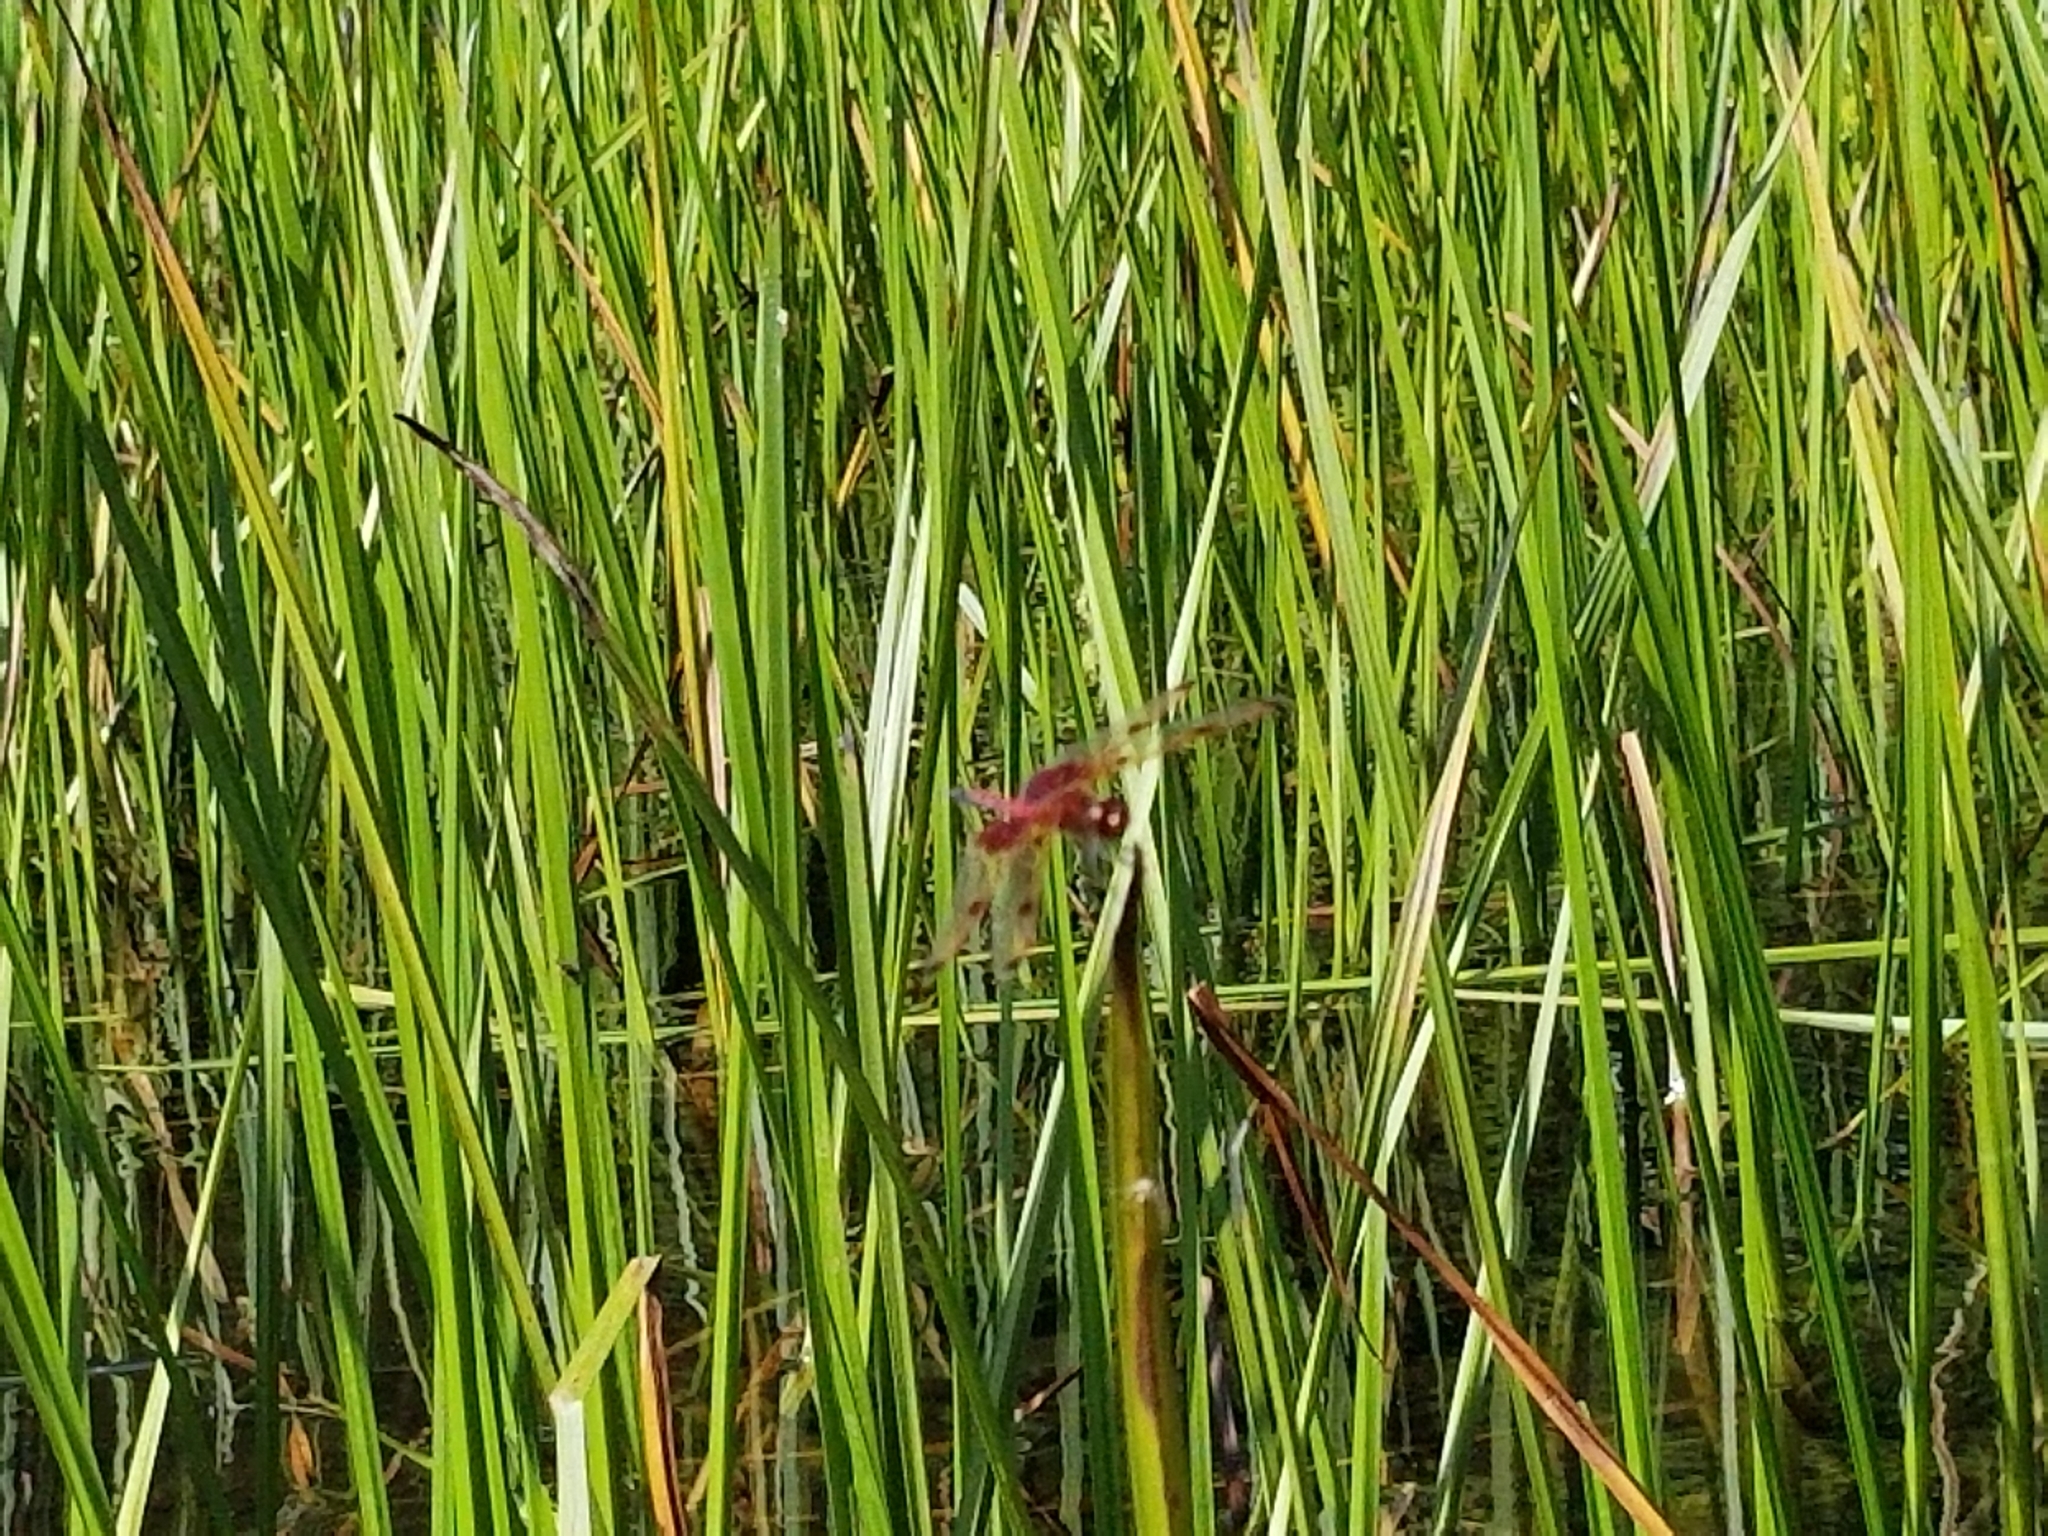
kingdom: Animalia
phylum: Arthropoda
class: Insecta
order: Odonata
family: Libellulidae
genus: Celithemis
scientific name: Celithemis elisa
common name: Calico pennant
